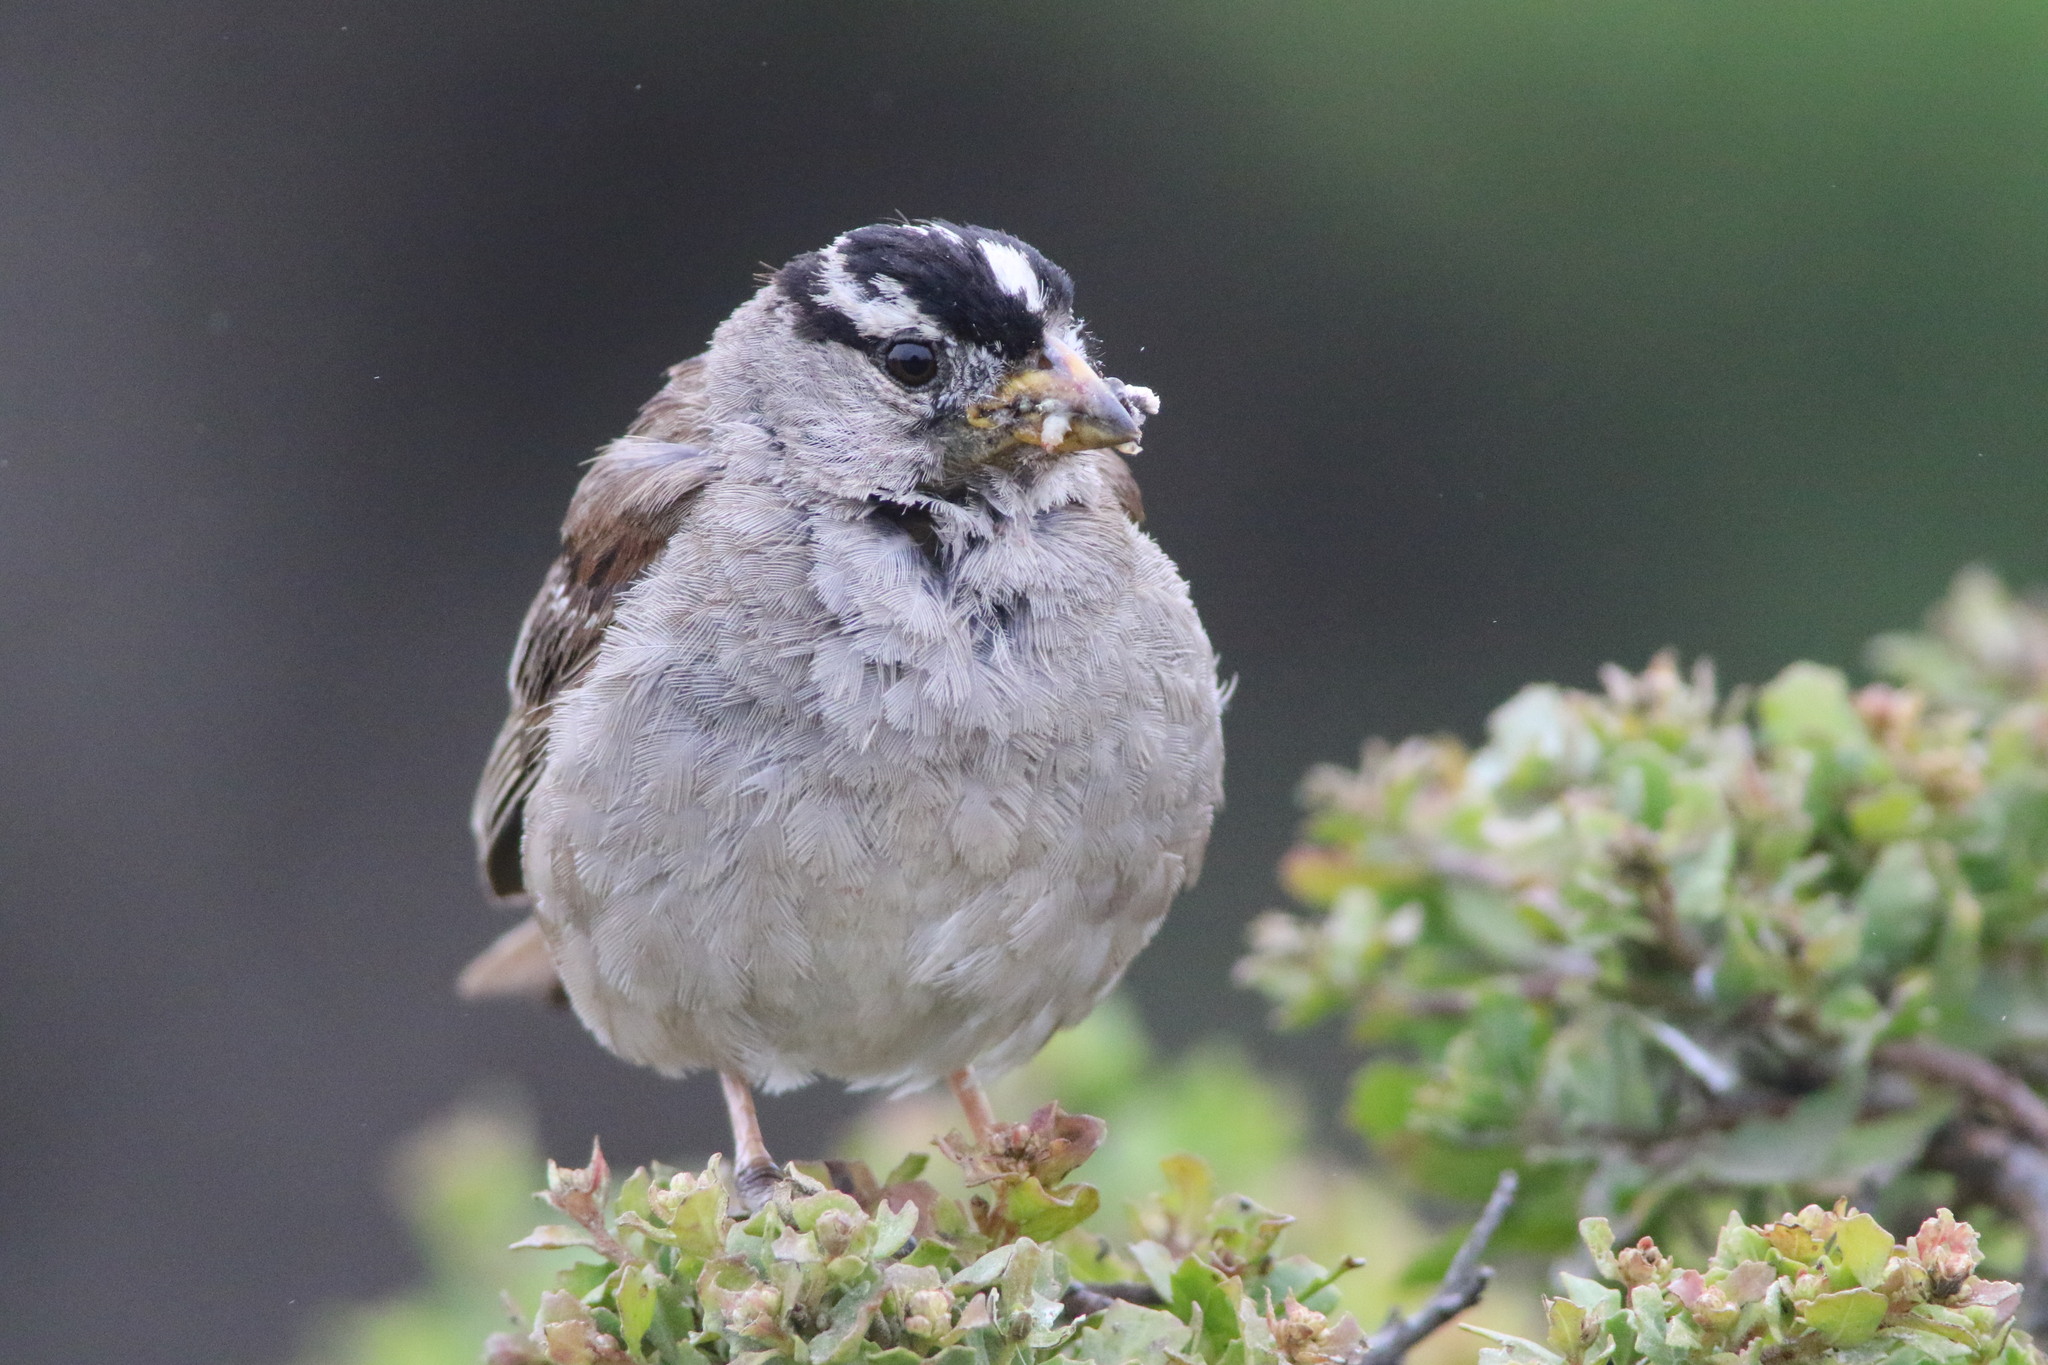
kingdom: Animalia
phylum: Chordata
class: Aves
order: Passeriformes
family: Passerellidae
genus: Zonotrichia
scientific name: Zonotrichia leucophrys
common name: White-crowned sparrow
